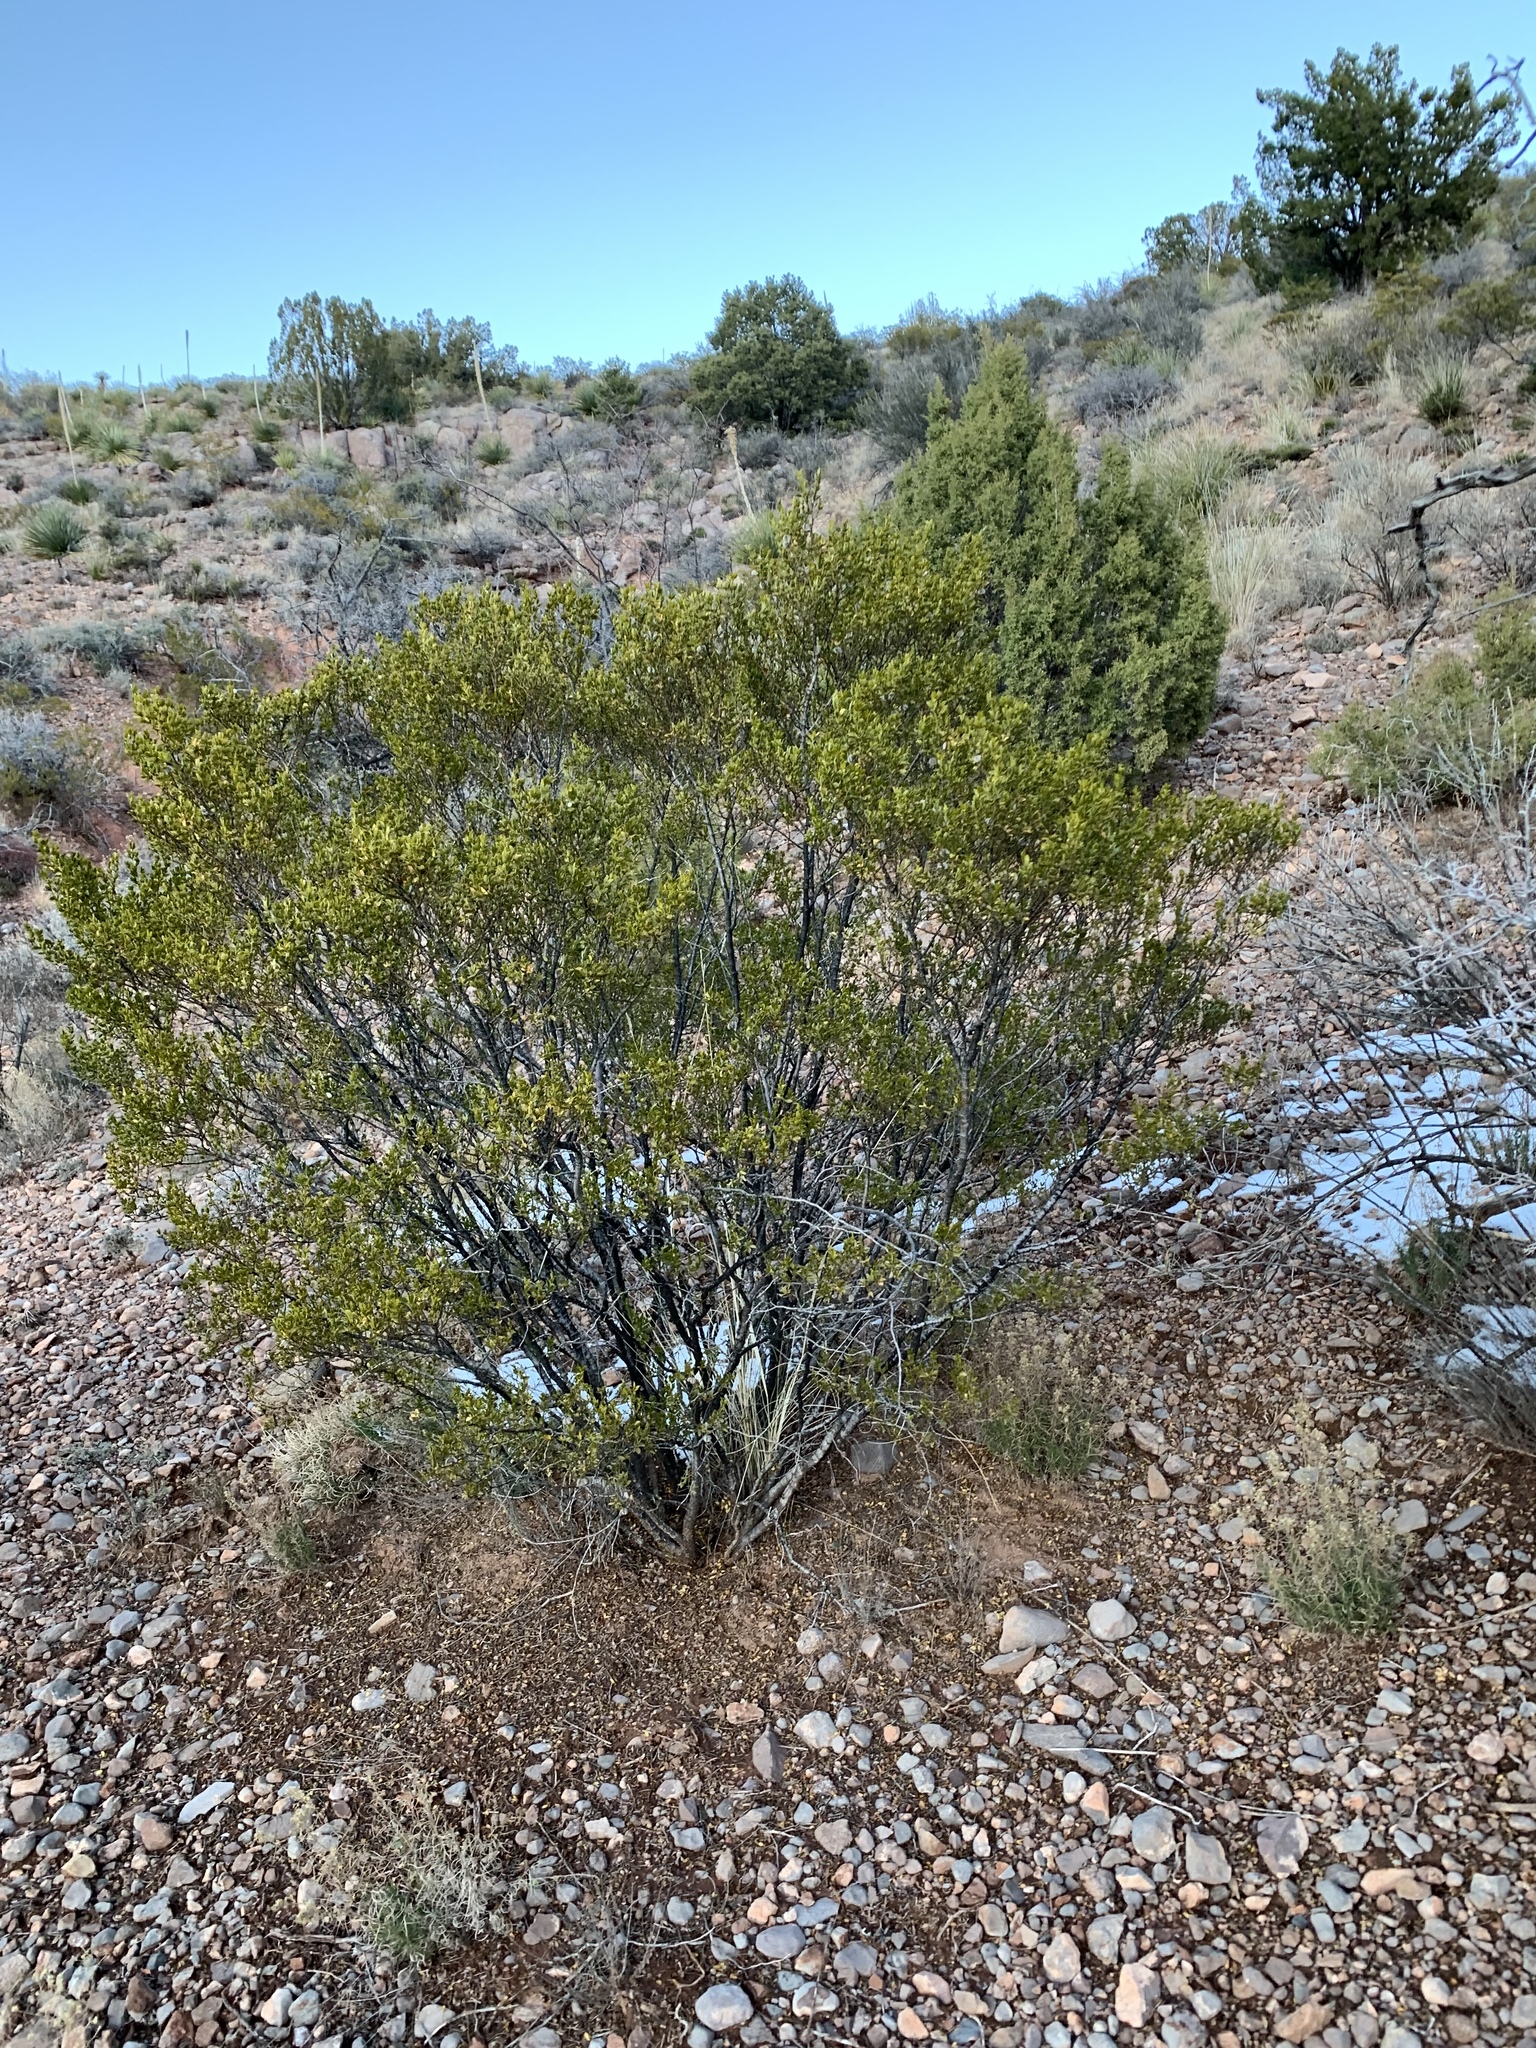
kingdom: Plantae
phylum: Tracheophyta
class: Magnoliopsida
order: Zygophyllales
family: Zygophyllaceae
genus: Larrea
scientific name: Larrea tridentata
